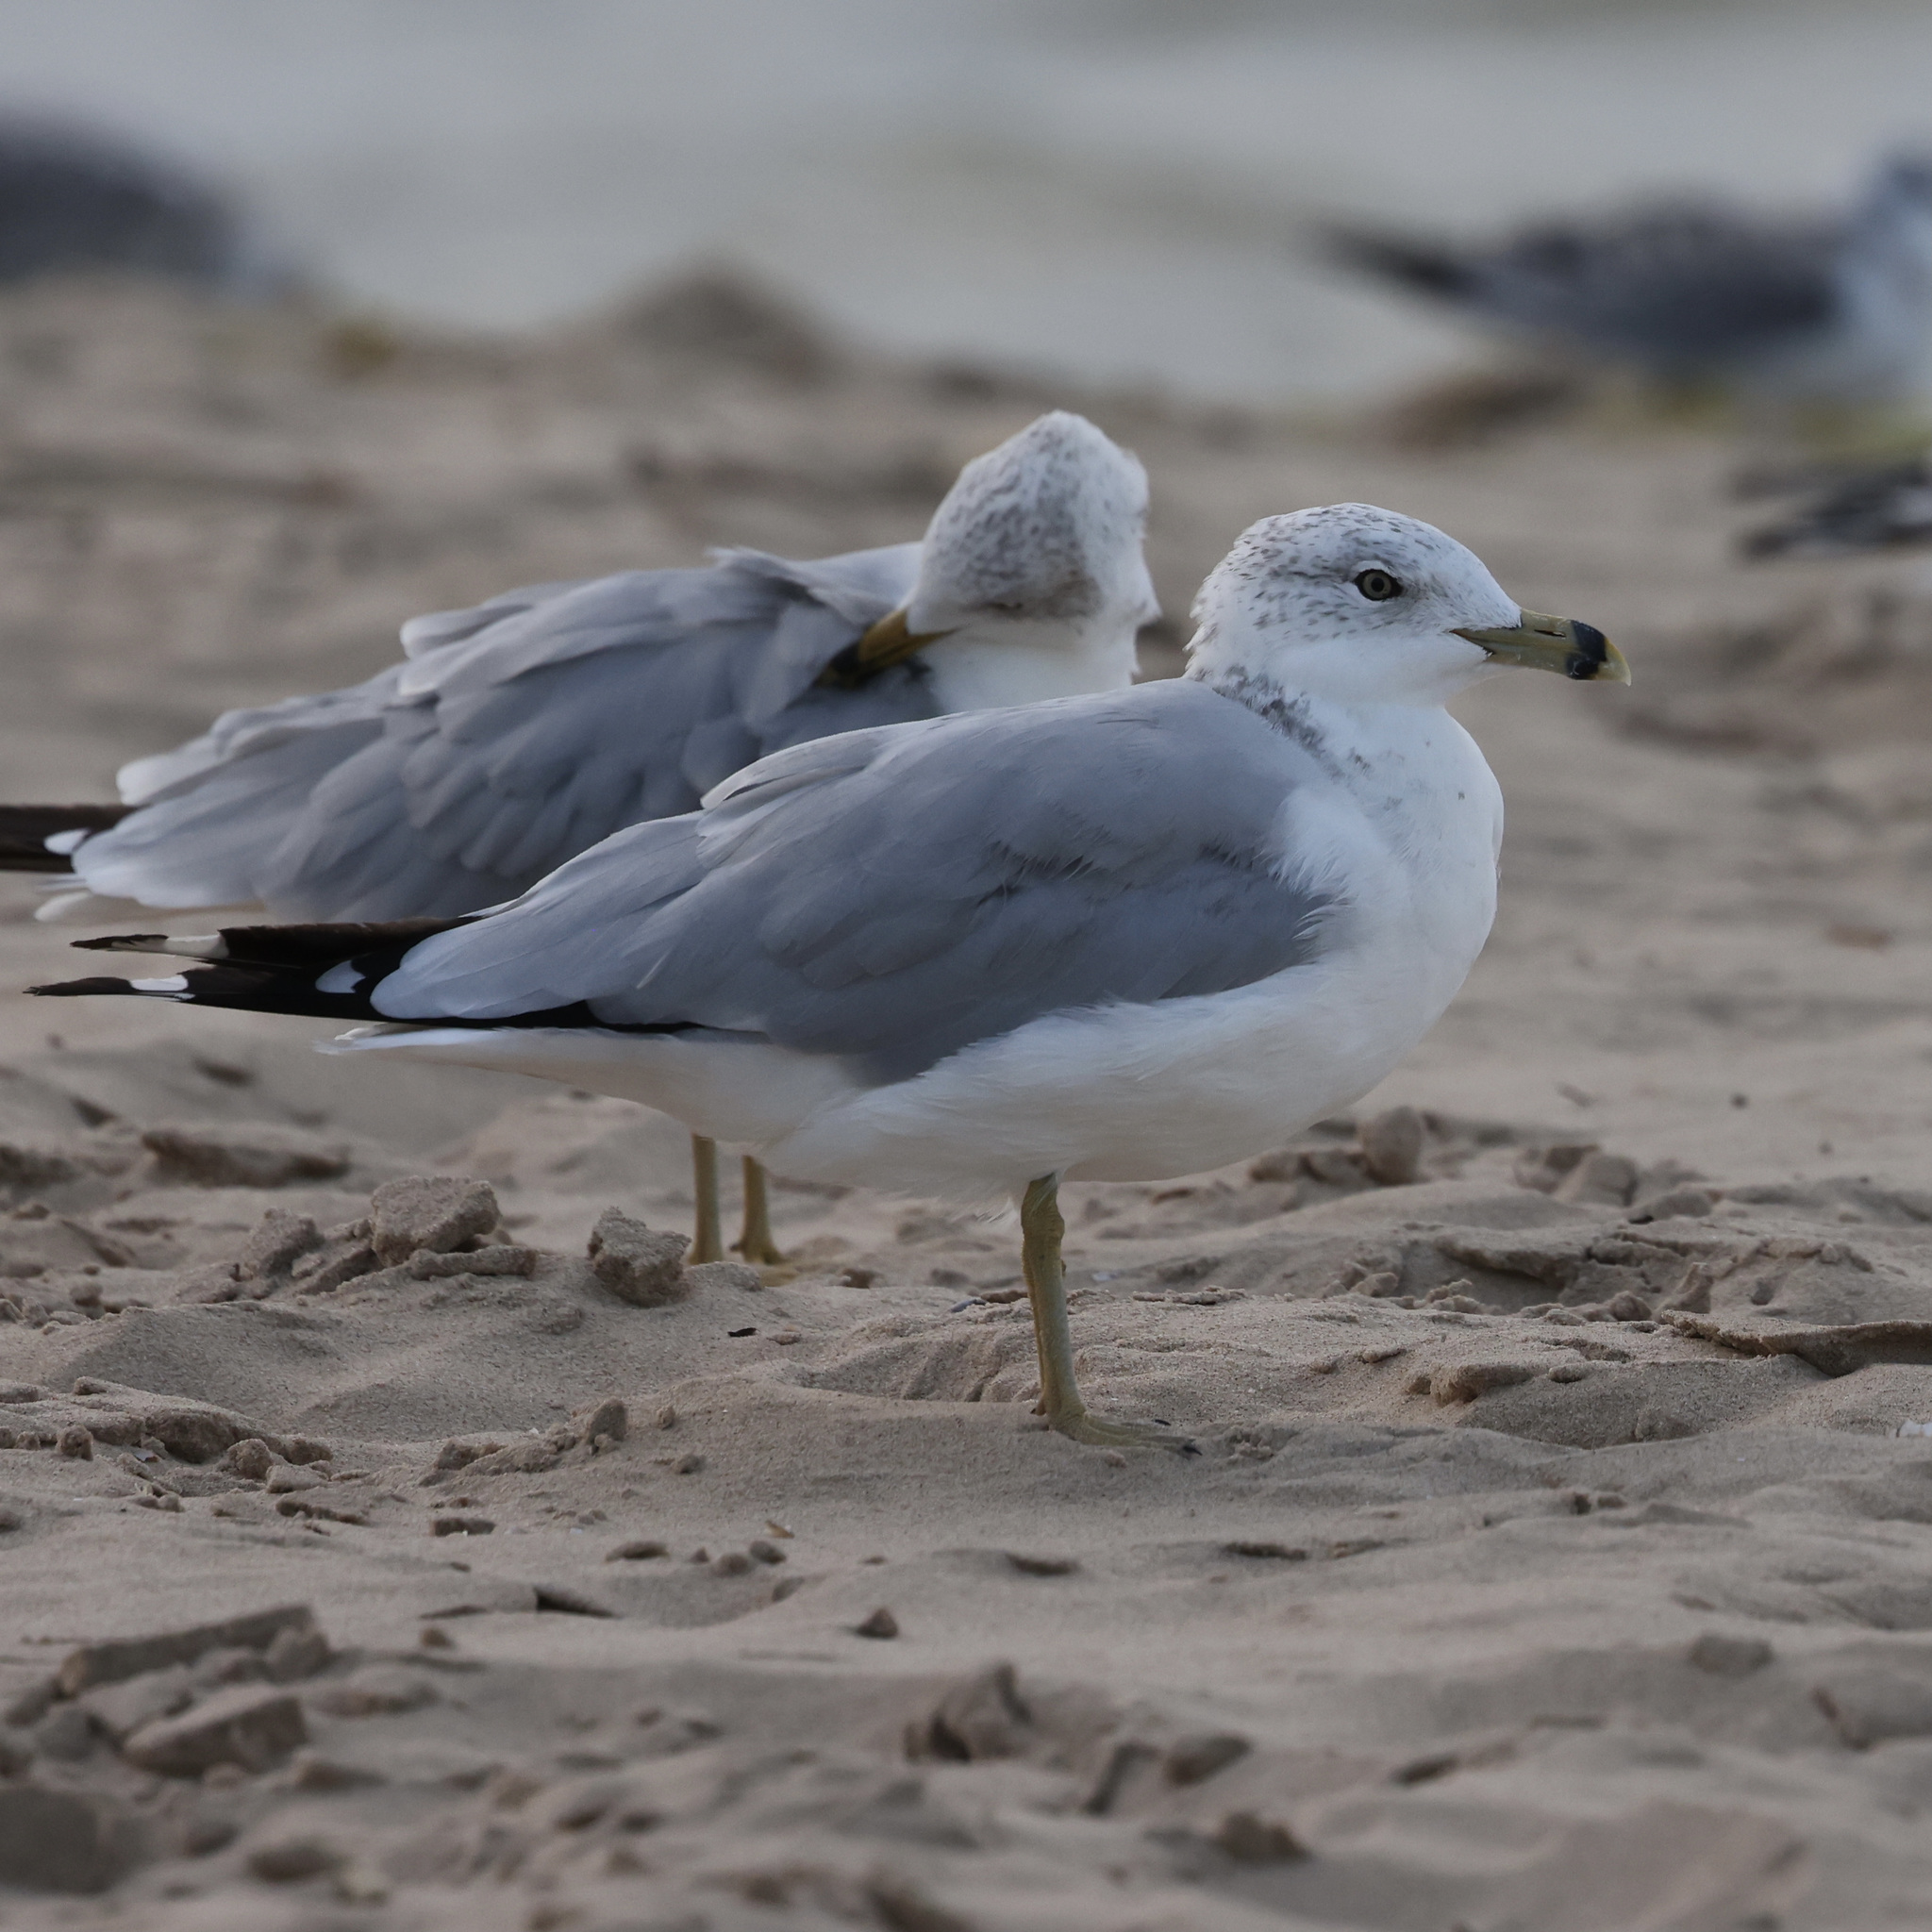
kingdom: Animalia
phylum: Chordata
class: Aves
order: Charadriiformes
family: Laridae
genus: Larus
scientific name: Larus delawarensis
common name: Ring-billed gull
